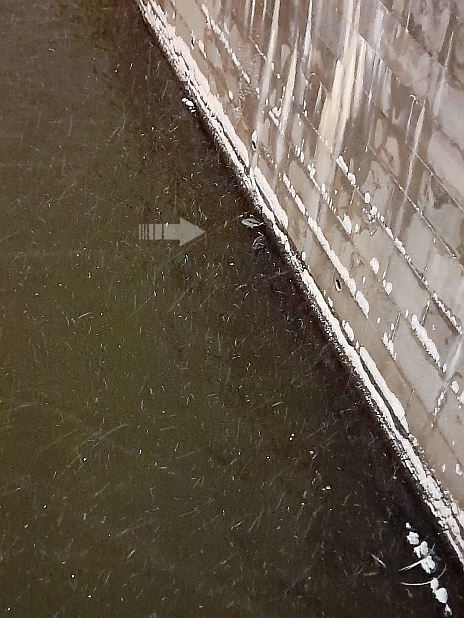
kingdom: Animalia
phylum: Chordata
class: Aves
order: Anseriformes
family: Anatidae
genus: Anas
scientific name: Anas platyrhynchos
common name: Mallard
